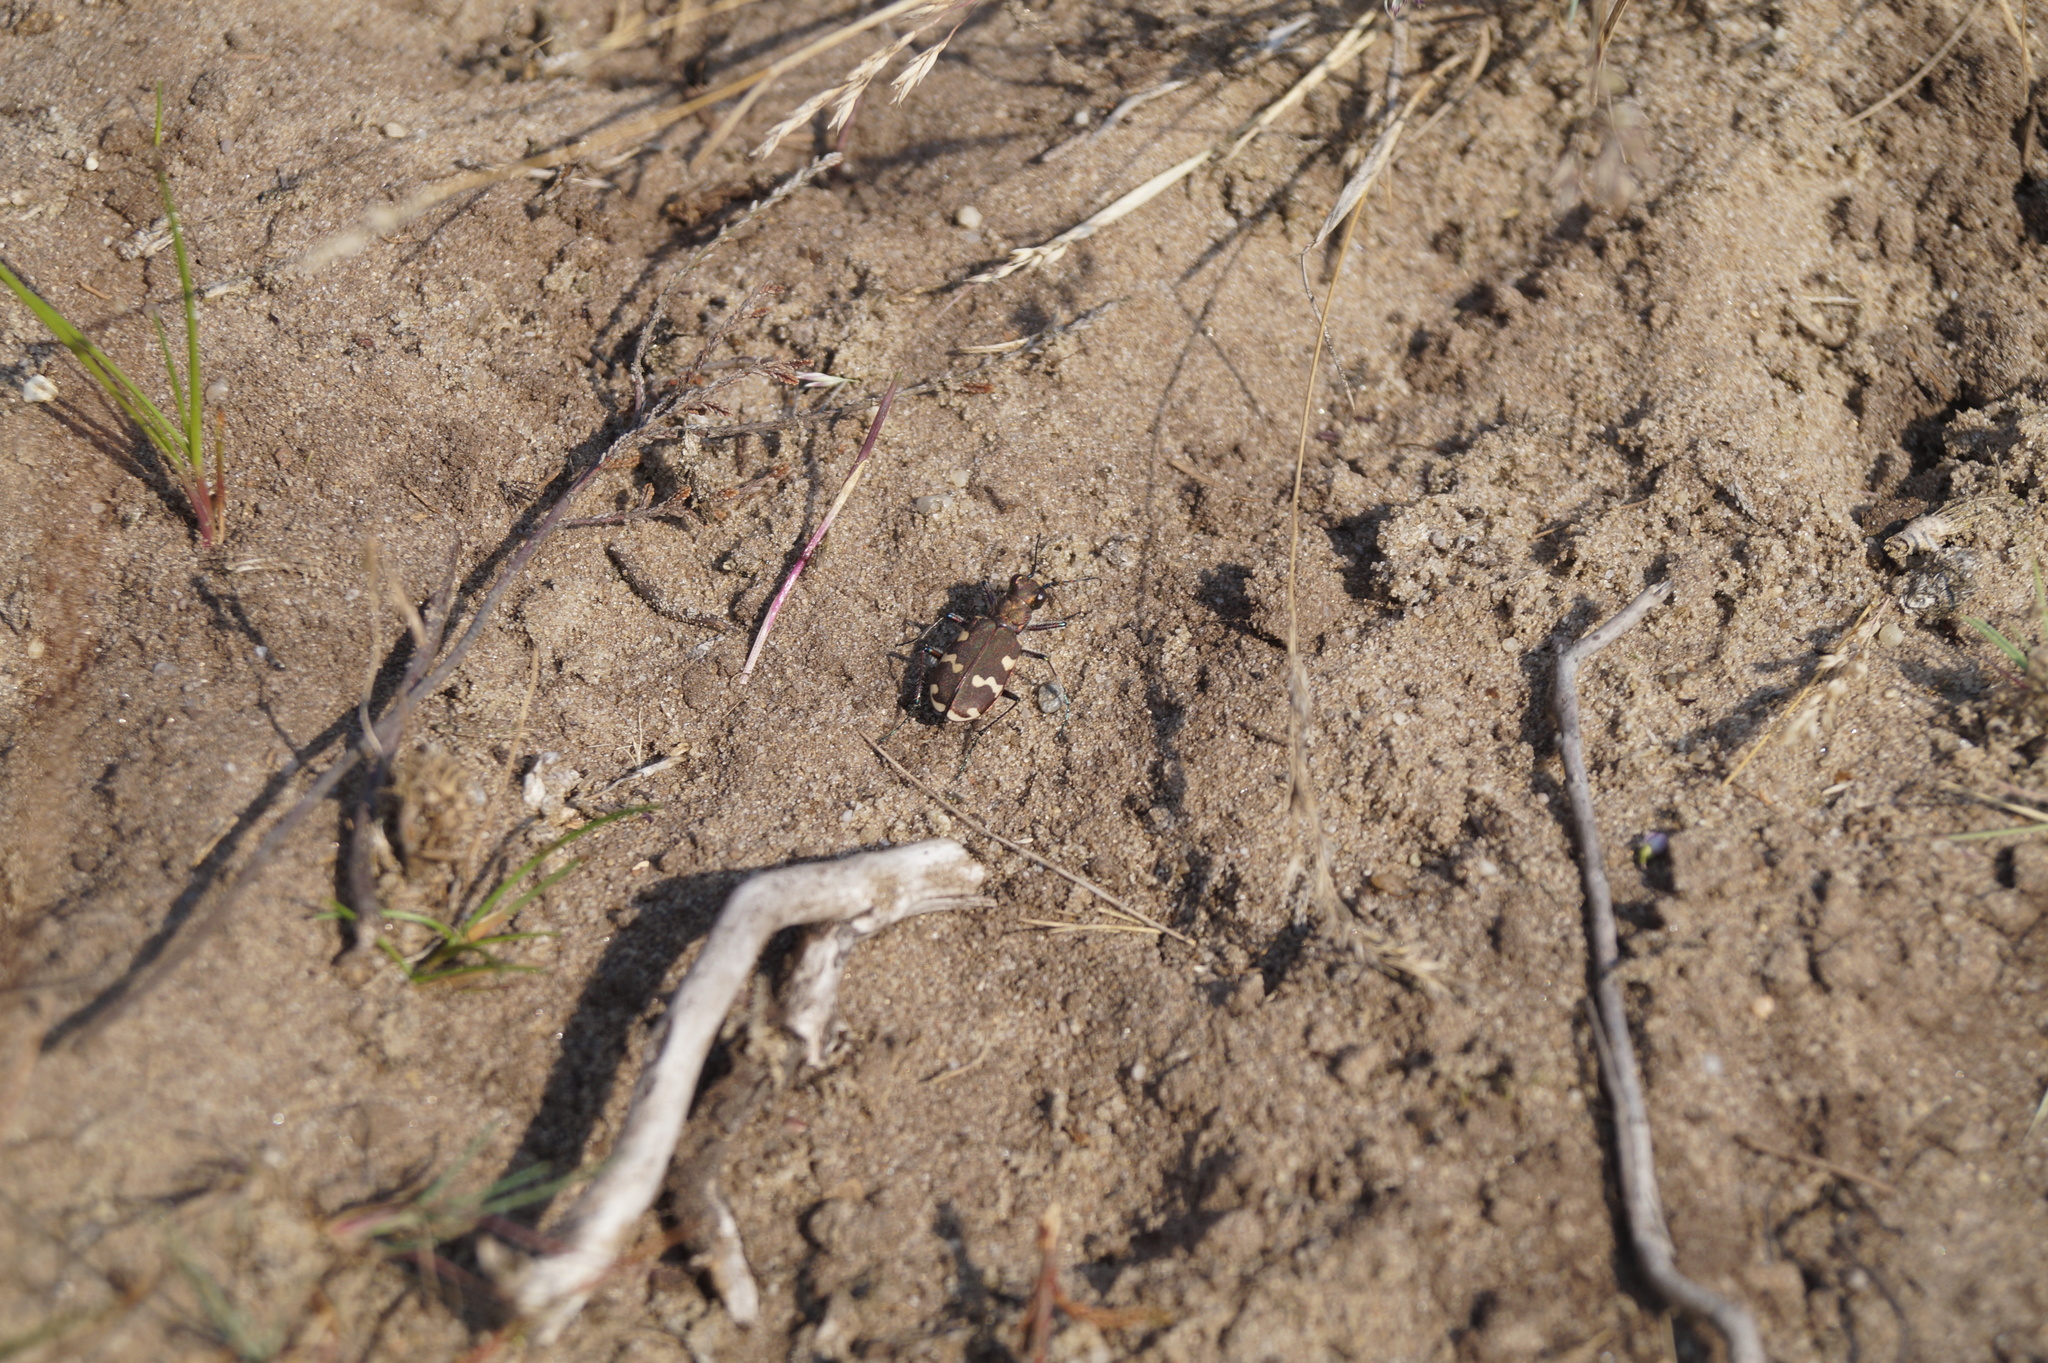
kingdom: Animalia
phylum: Arthropoda
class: Insecta
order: Coleoptera
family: Carabidae
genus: Cicindela
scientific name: Cicindela hybrida
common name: Northern dune tiger beetle
